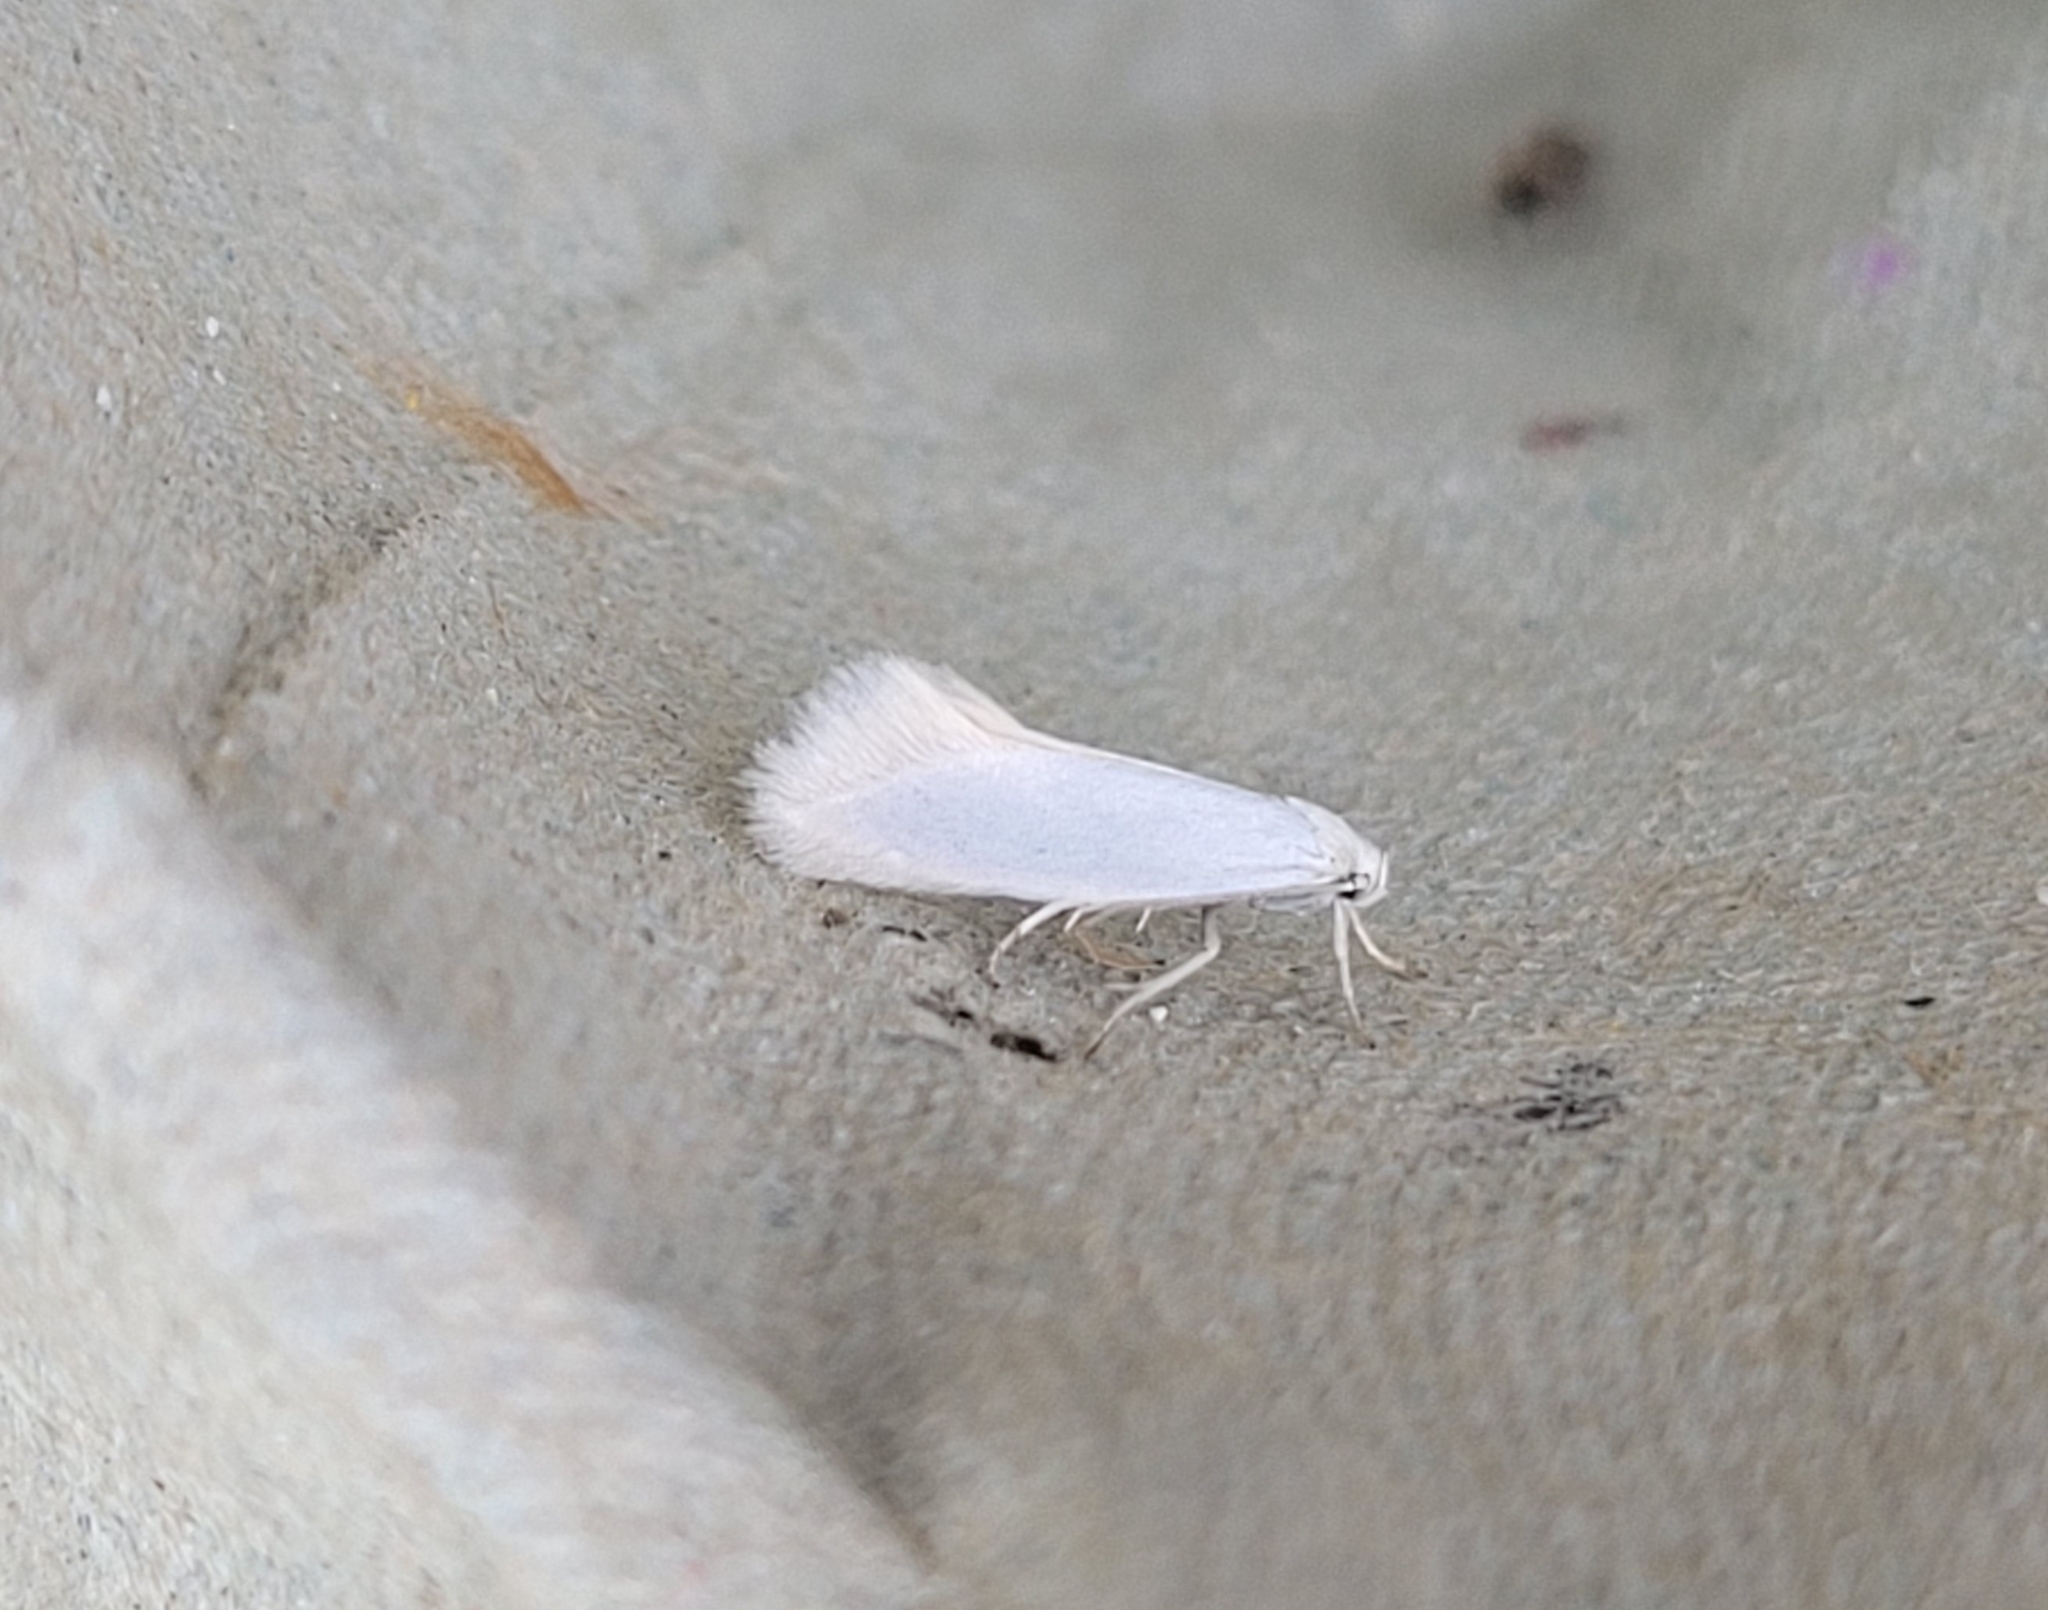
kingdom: Animalia
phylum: Arthropoda
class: Insecta
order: Lepidoptera
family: Elachistidae
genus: Elachista
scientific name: Elachista argentella
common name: Swan-feather dwarf
